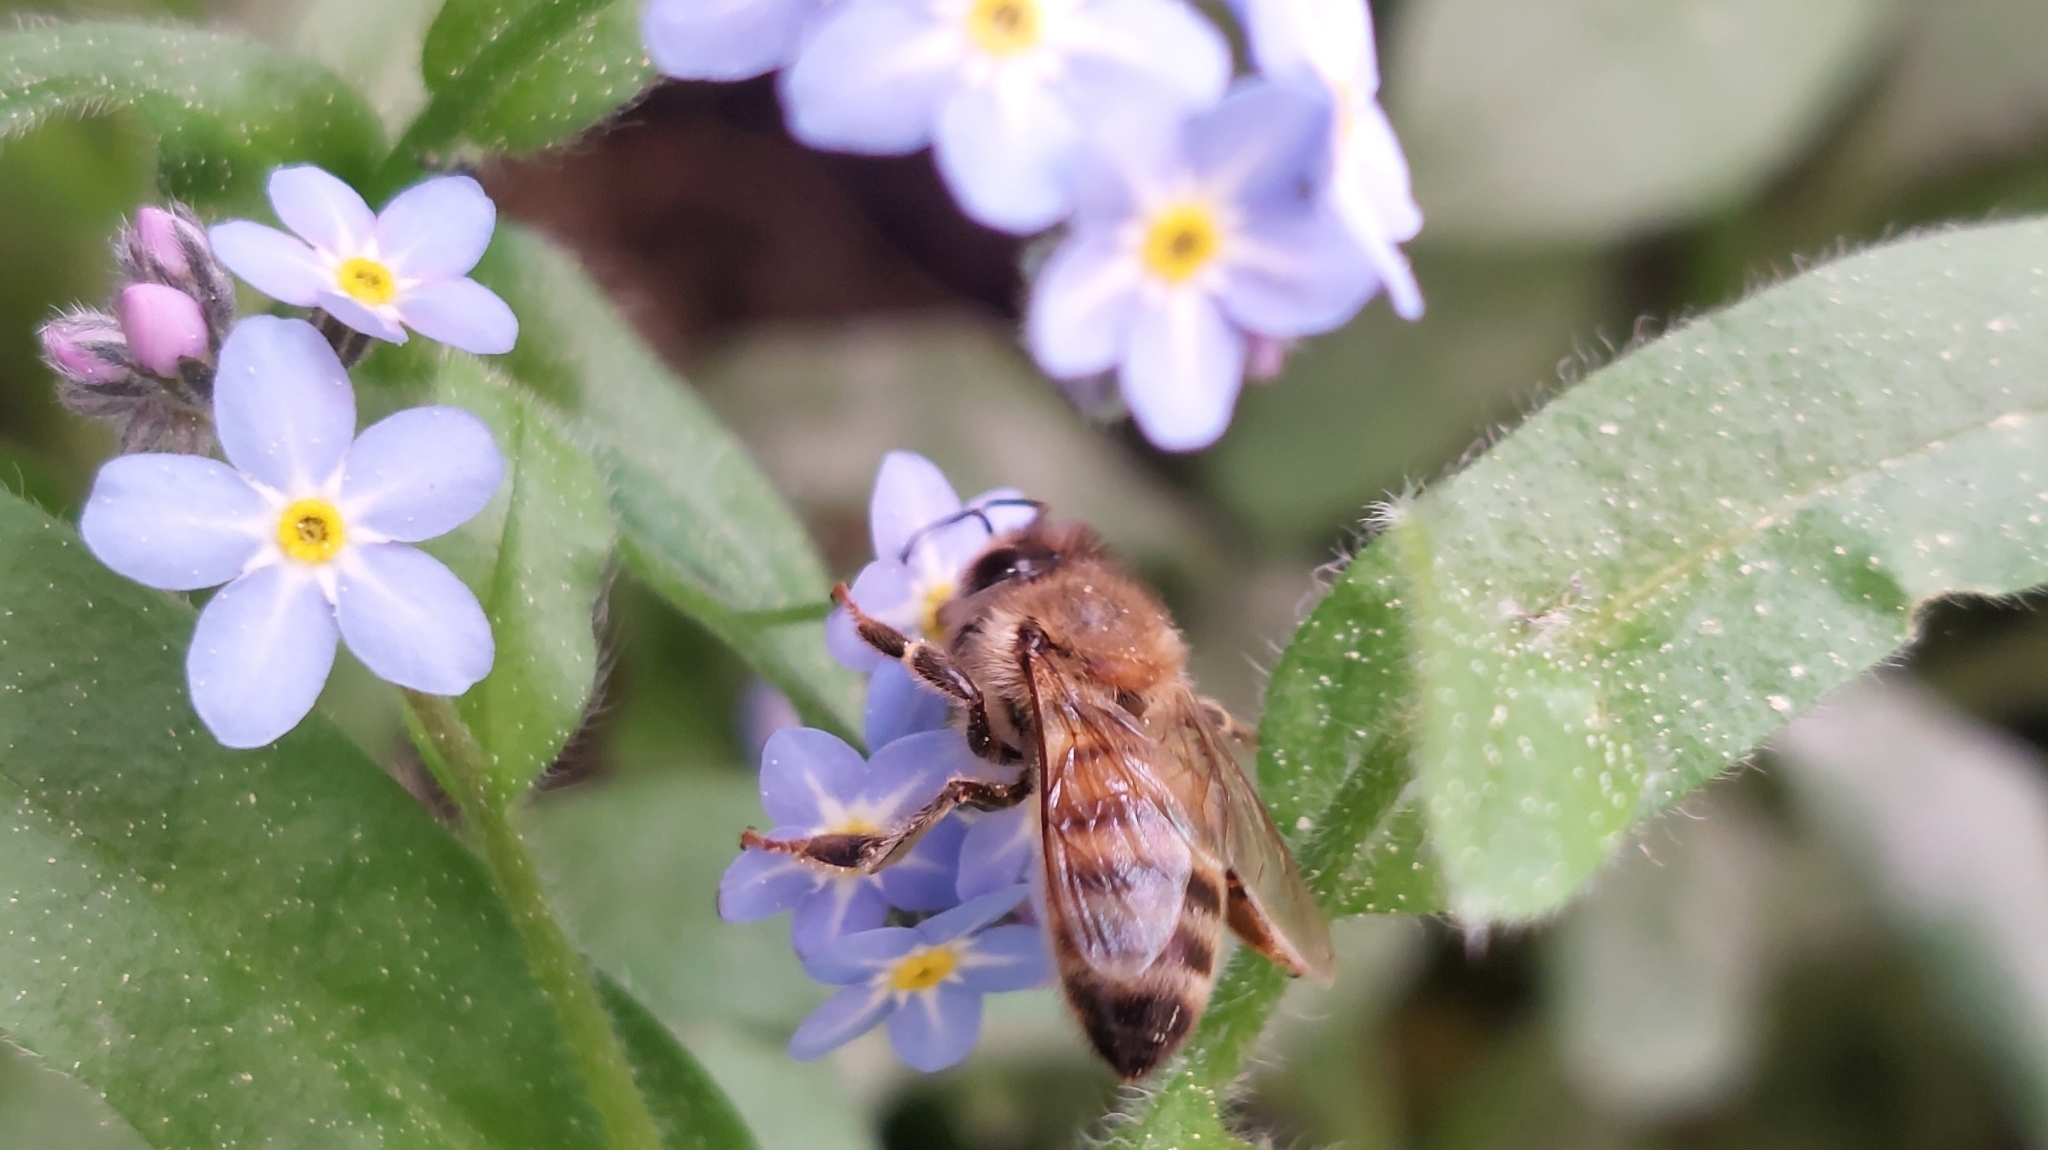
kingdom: Animalia
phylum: Arthropoda
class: Insecta
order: Hymenoptera
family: Apidae
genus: Apis
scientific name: Apis mellifera
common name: Honey bee
